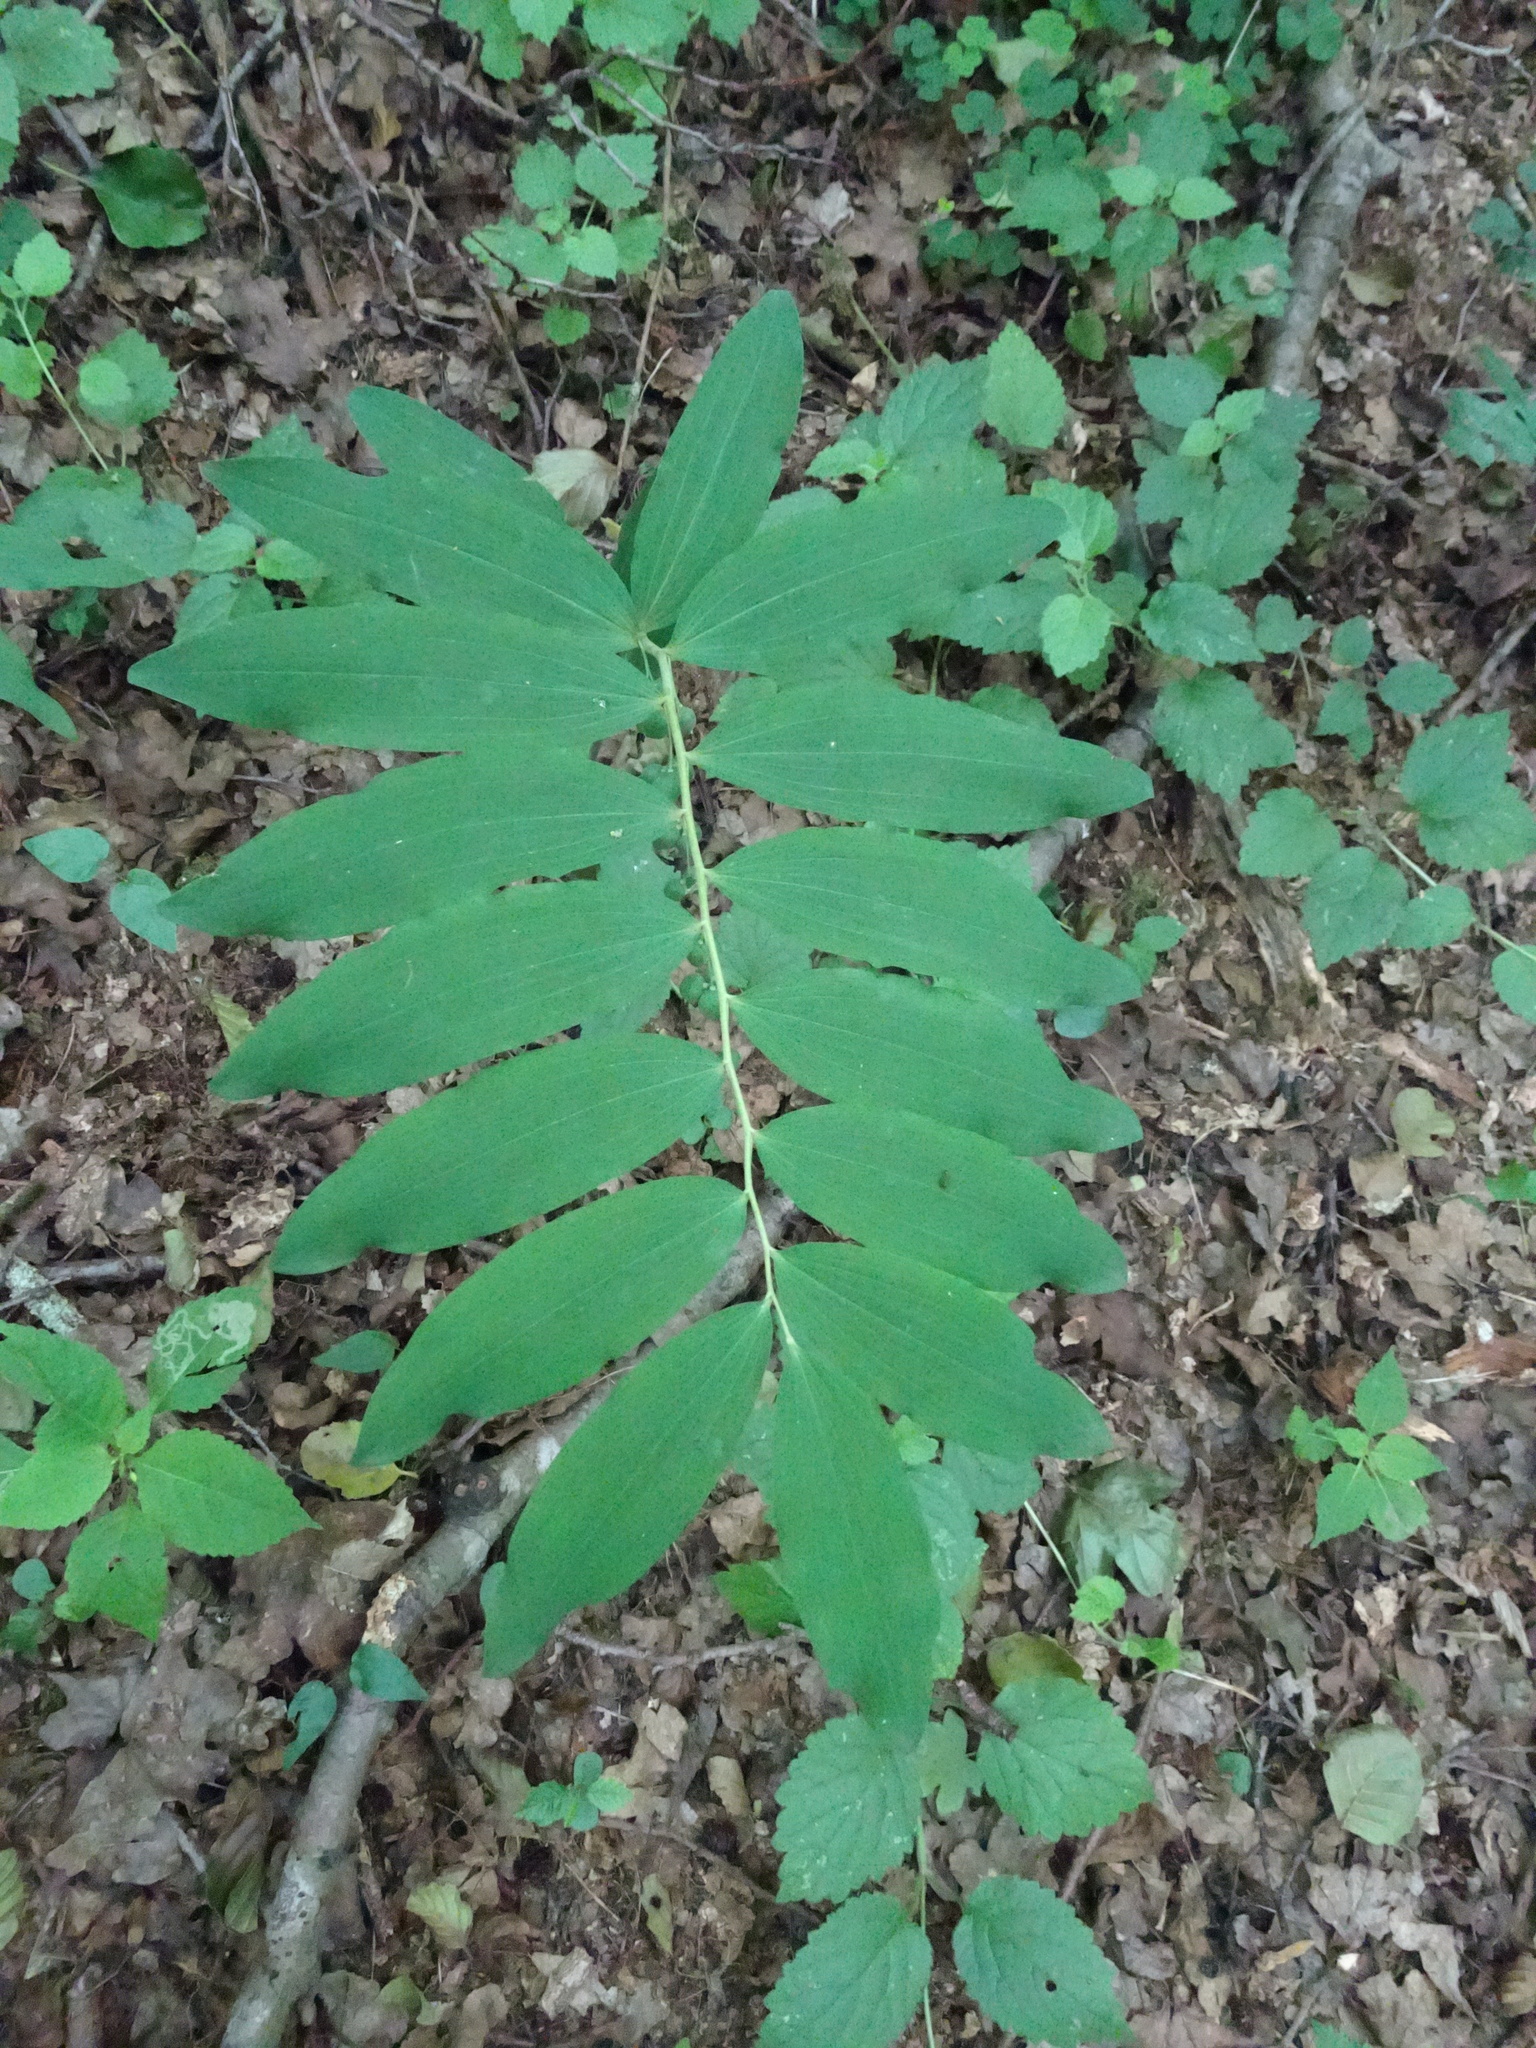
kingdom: Plantae
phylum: Tracheophyta
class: Liliopsida
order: Asparagales
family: Asparagaceae
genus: Polygonatum
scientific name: Polygonatum multiflorum
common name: Solomon's-seal
